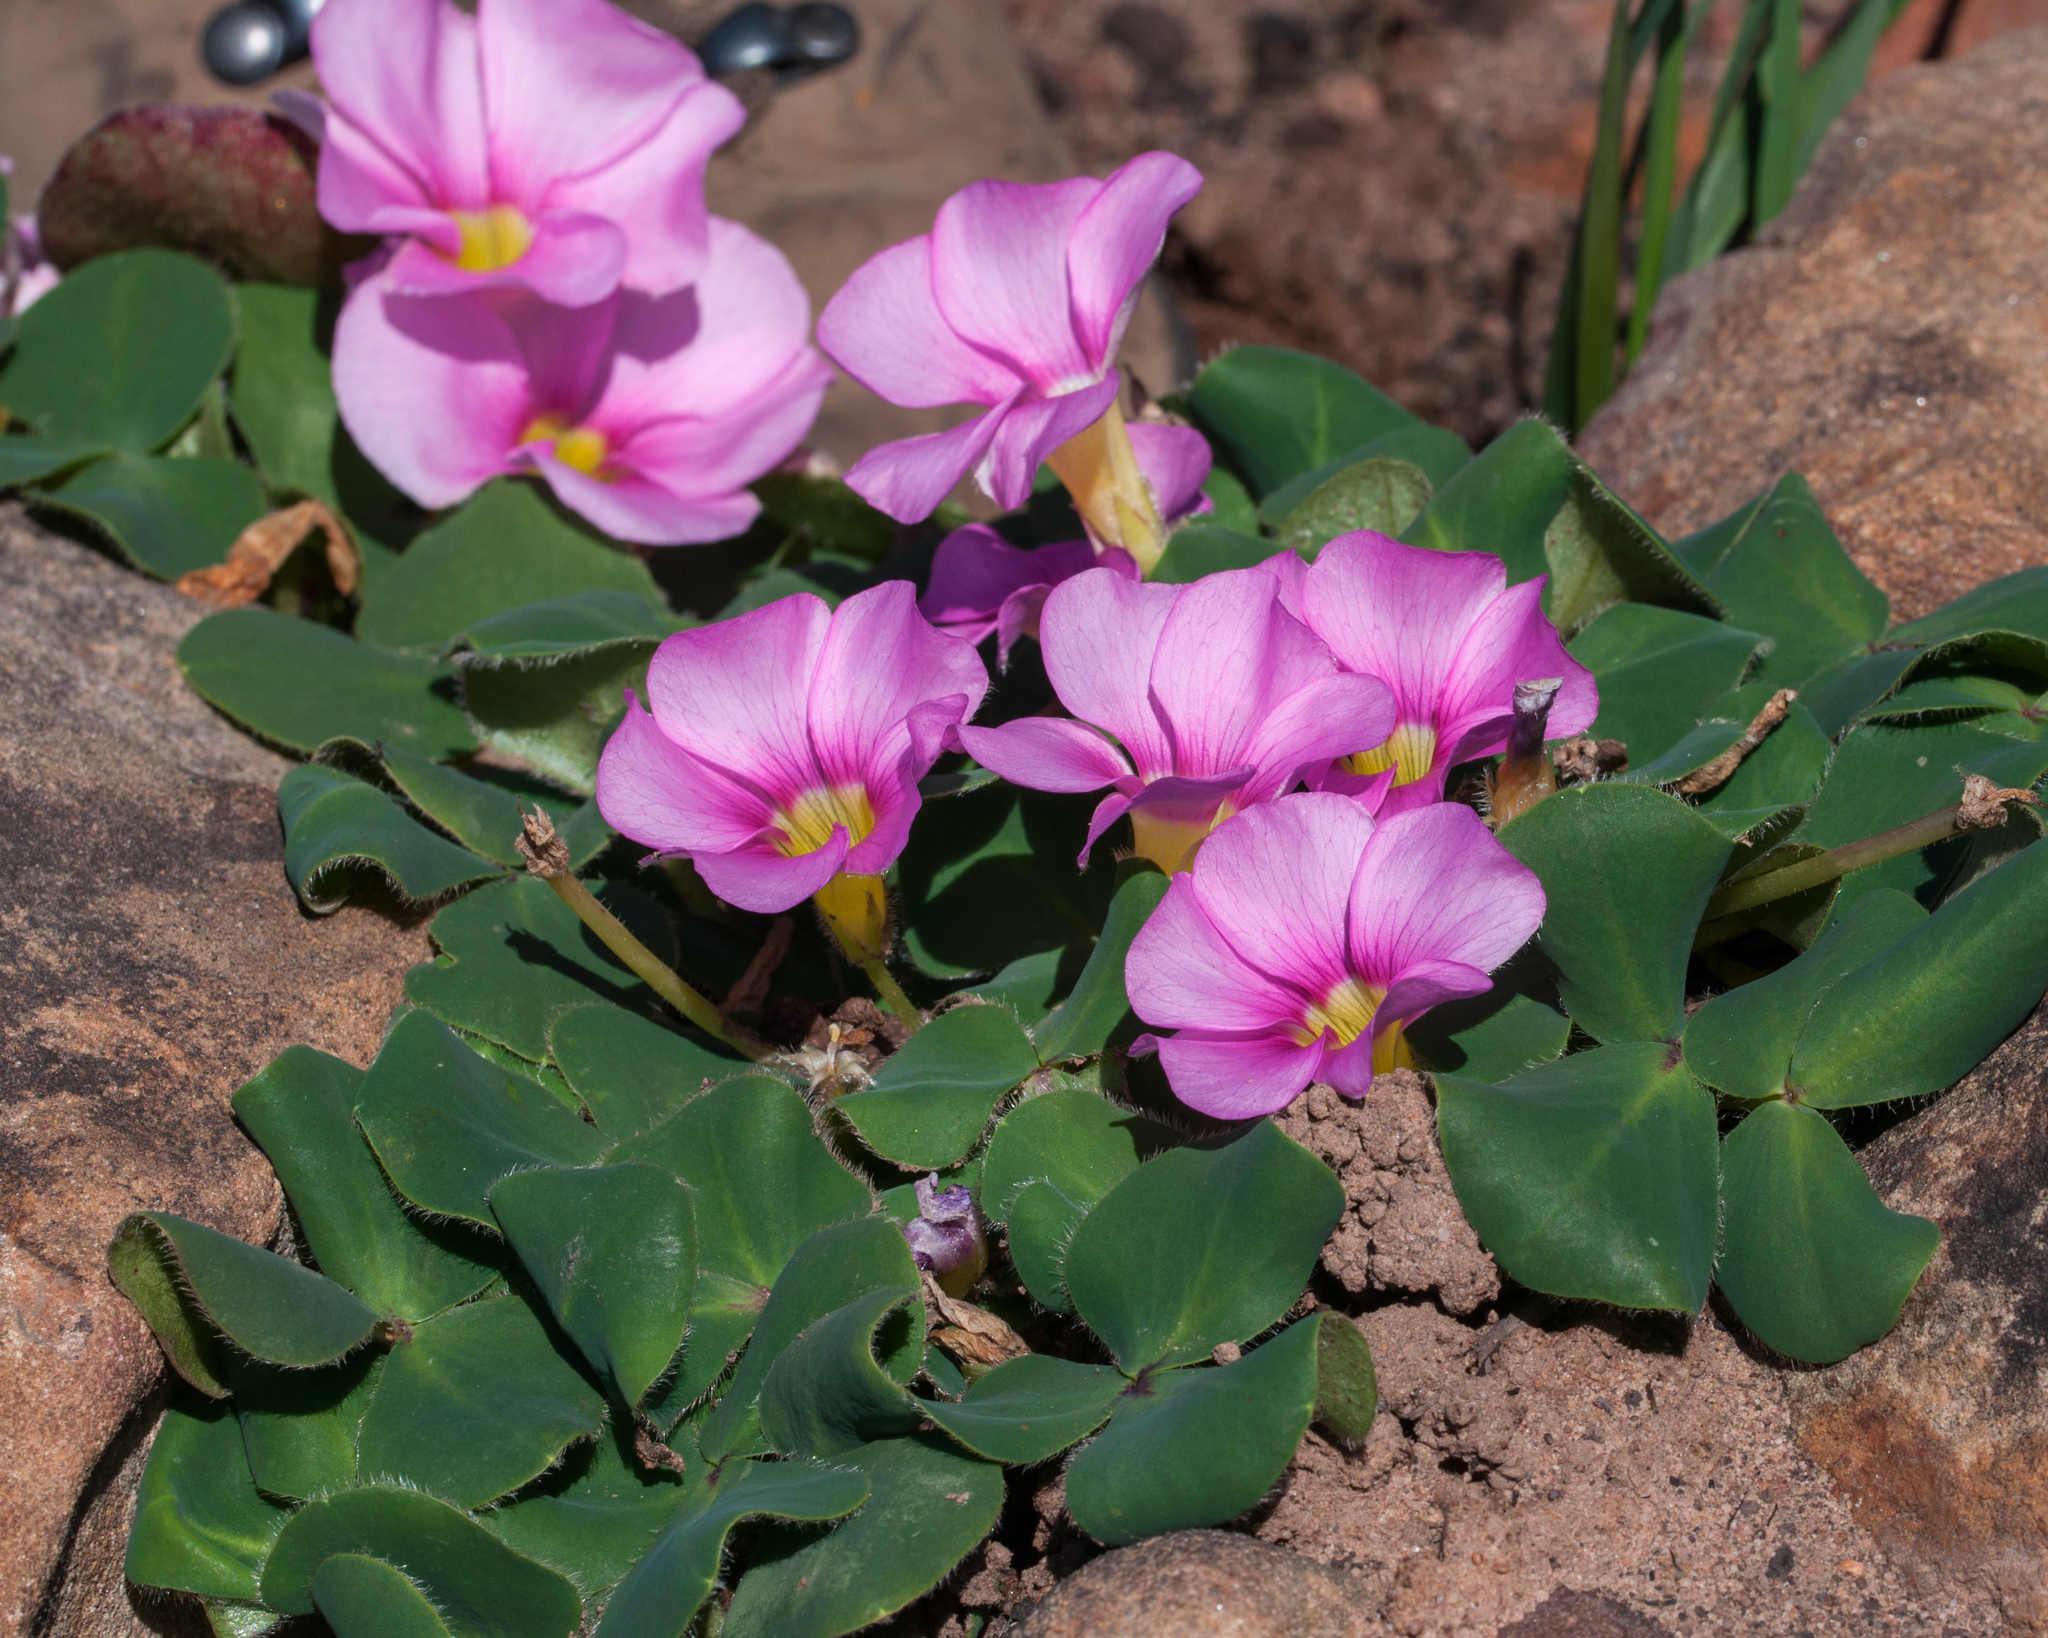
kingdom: Plantae
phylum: Tracheophyta
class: Magnoliopsida
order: Oxalidales
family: Oxalidaceae
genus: Oxalis
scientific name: Oxalis purpurea
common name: Purple woodsorrel
